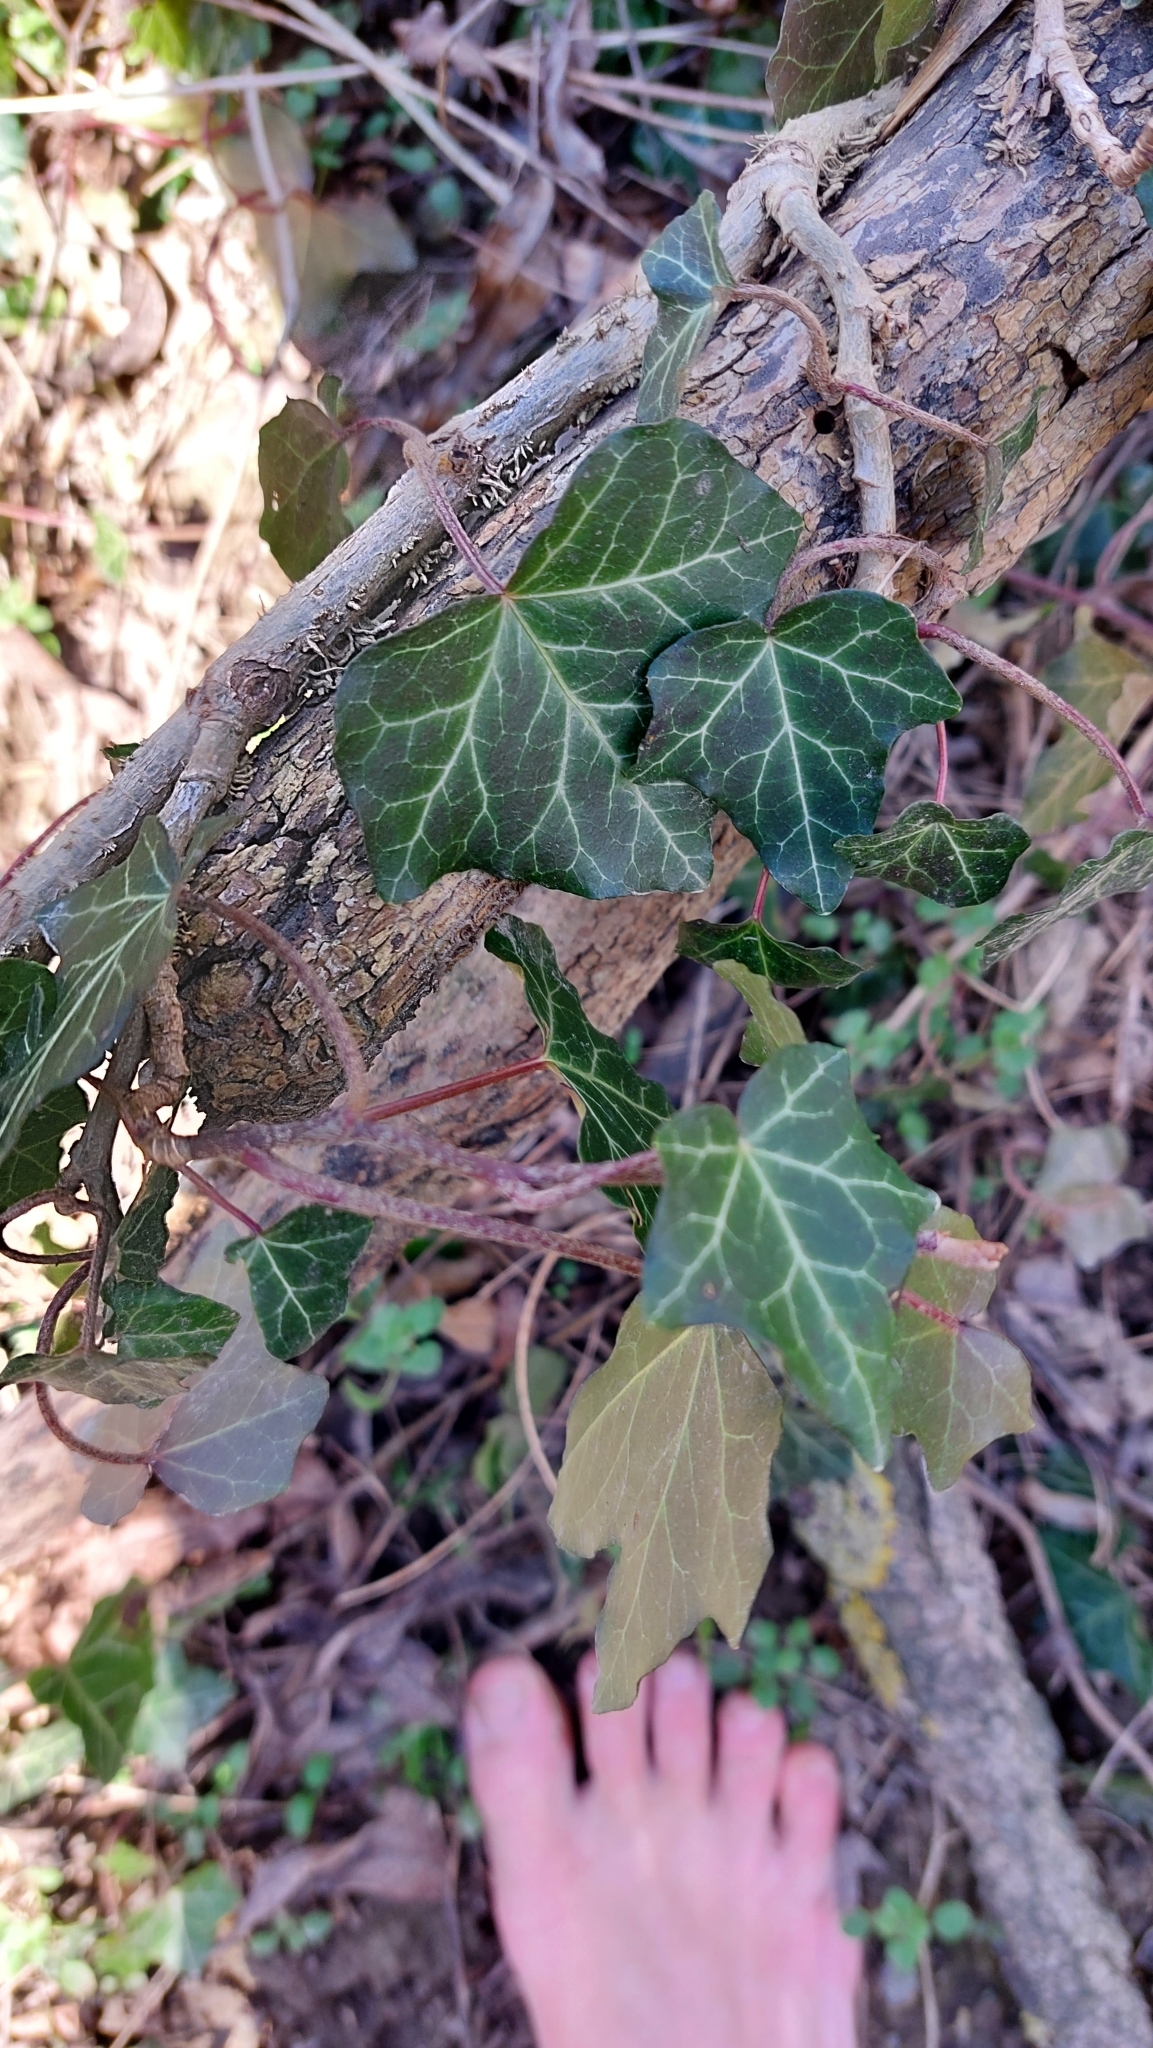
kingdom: Plantae
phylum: Tracheophyta
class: Magnoliopsida
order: Apiales
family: Araliaceae
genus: Hedera
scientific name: Hedera helix
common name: Ivy
